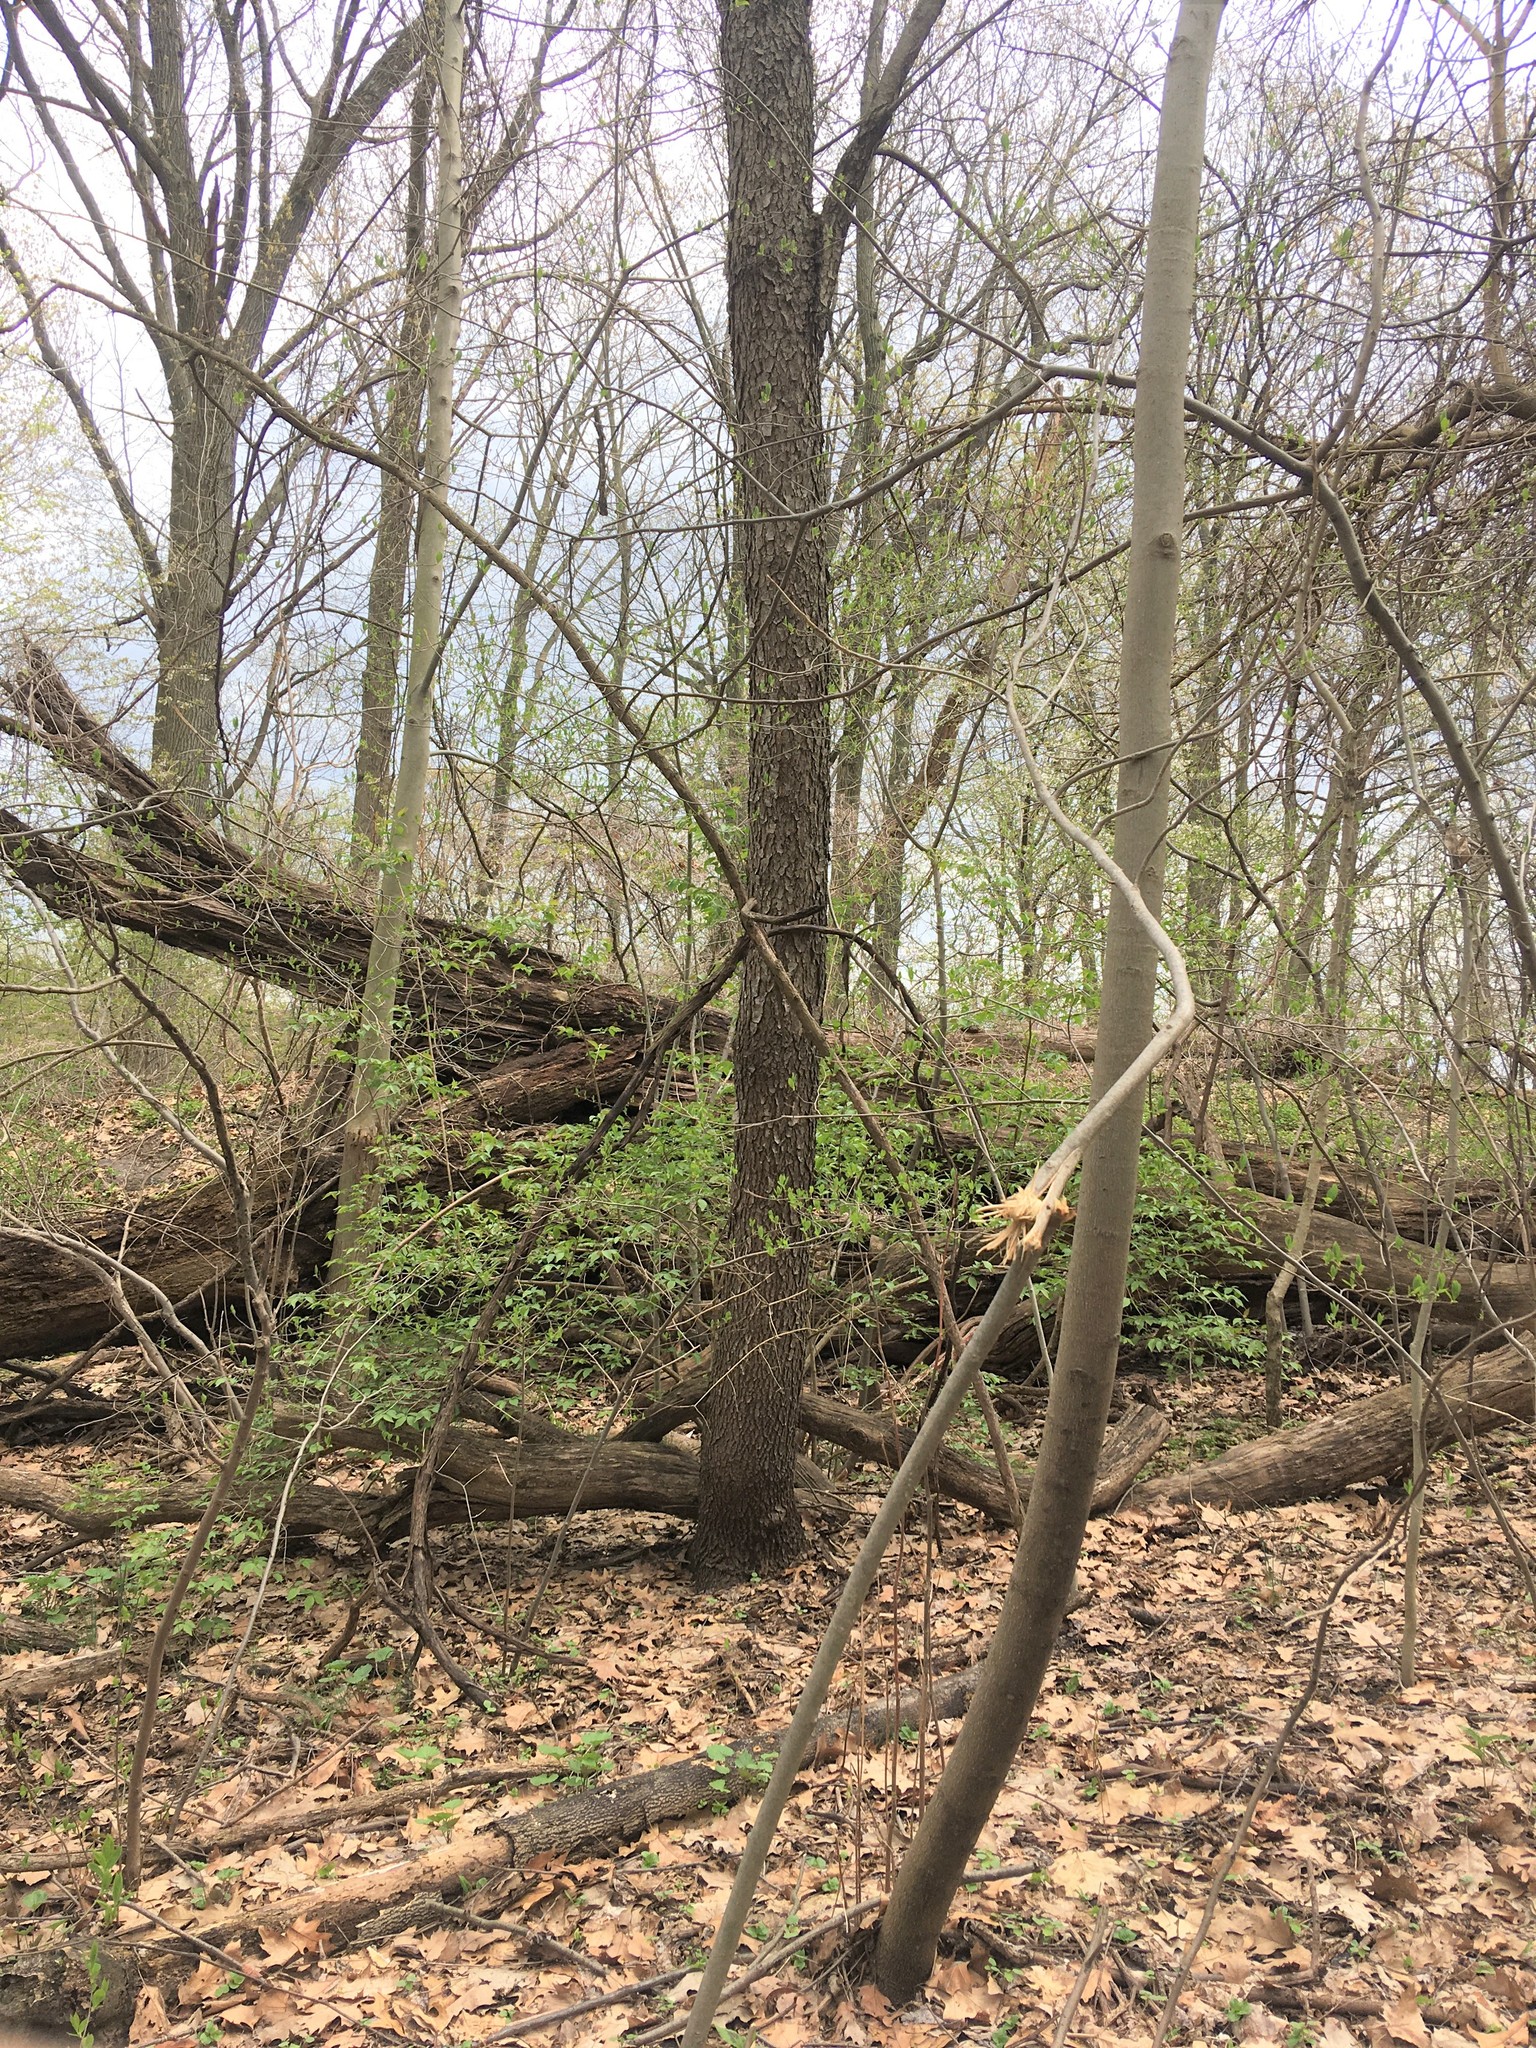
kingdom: Plantae
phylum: Tracheophyta
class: Magnoliopsida
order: Rosales
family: Rosaceae
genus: Prunus
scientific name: Prunus serotina
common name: Black cherry
